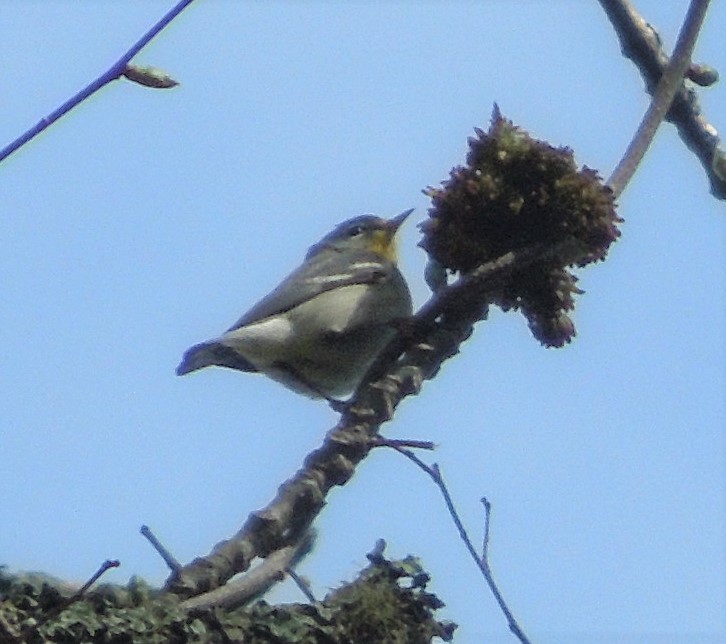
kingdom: Animalia
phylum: Chordata
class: Aves
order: Passeriformes
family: Parulidae
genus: Setophaga
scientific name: Setophaga americana
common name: Northern parula
